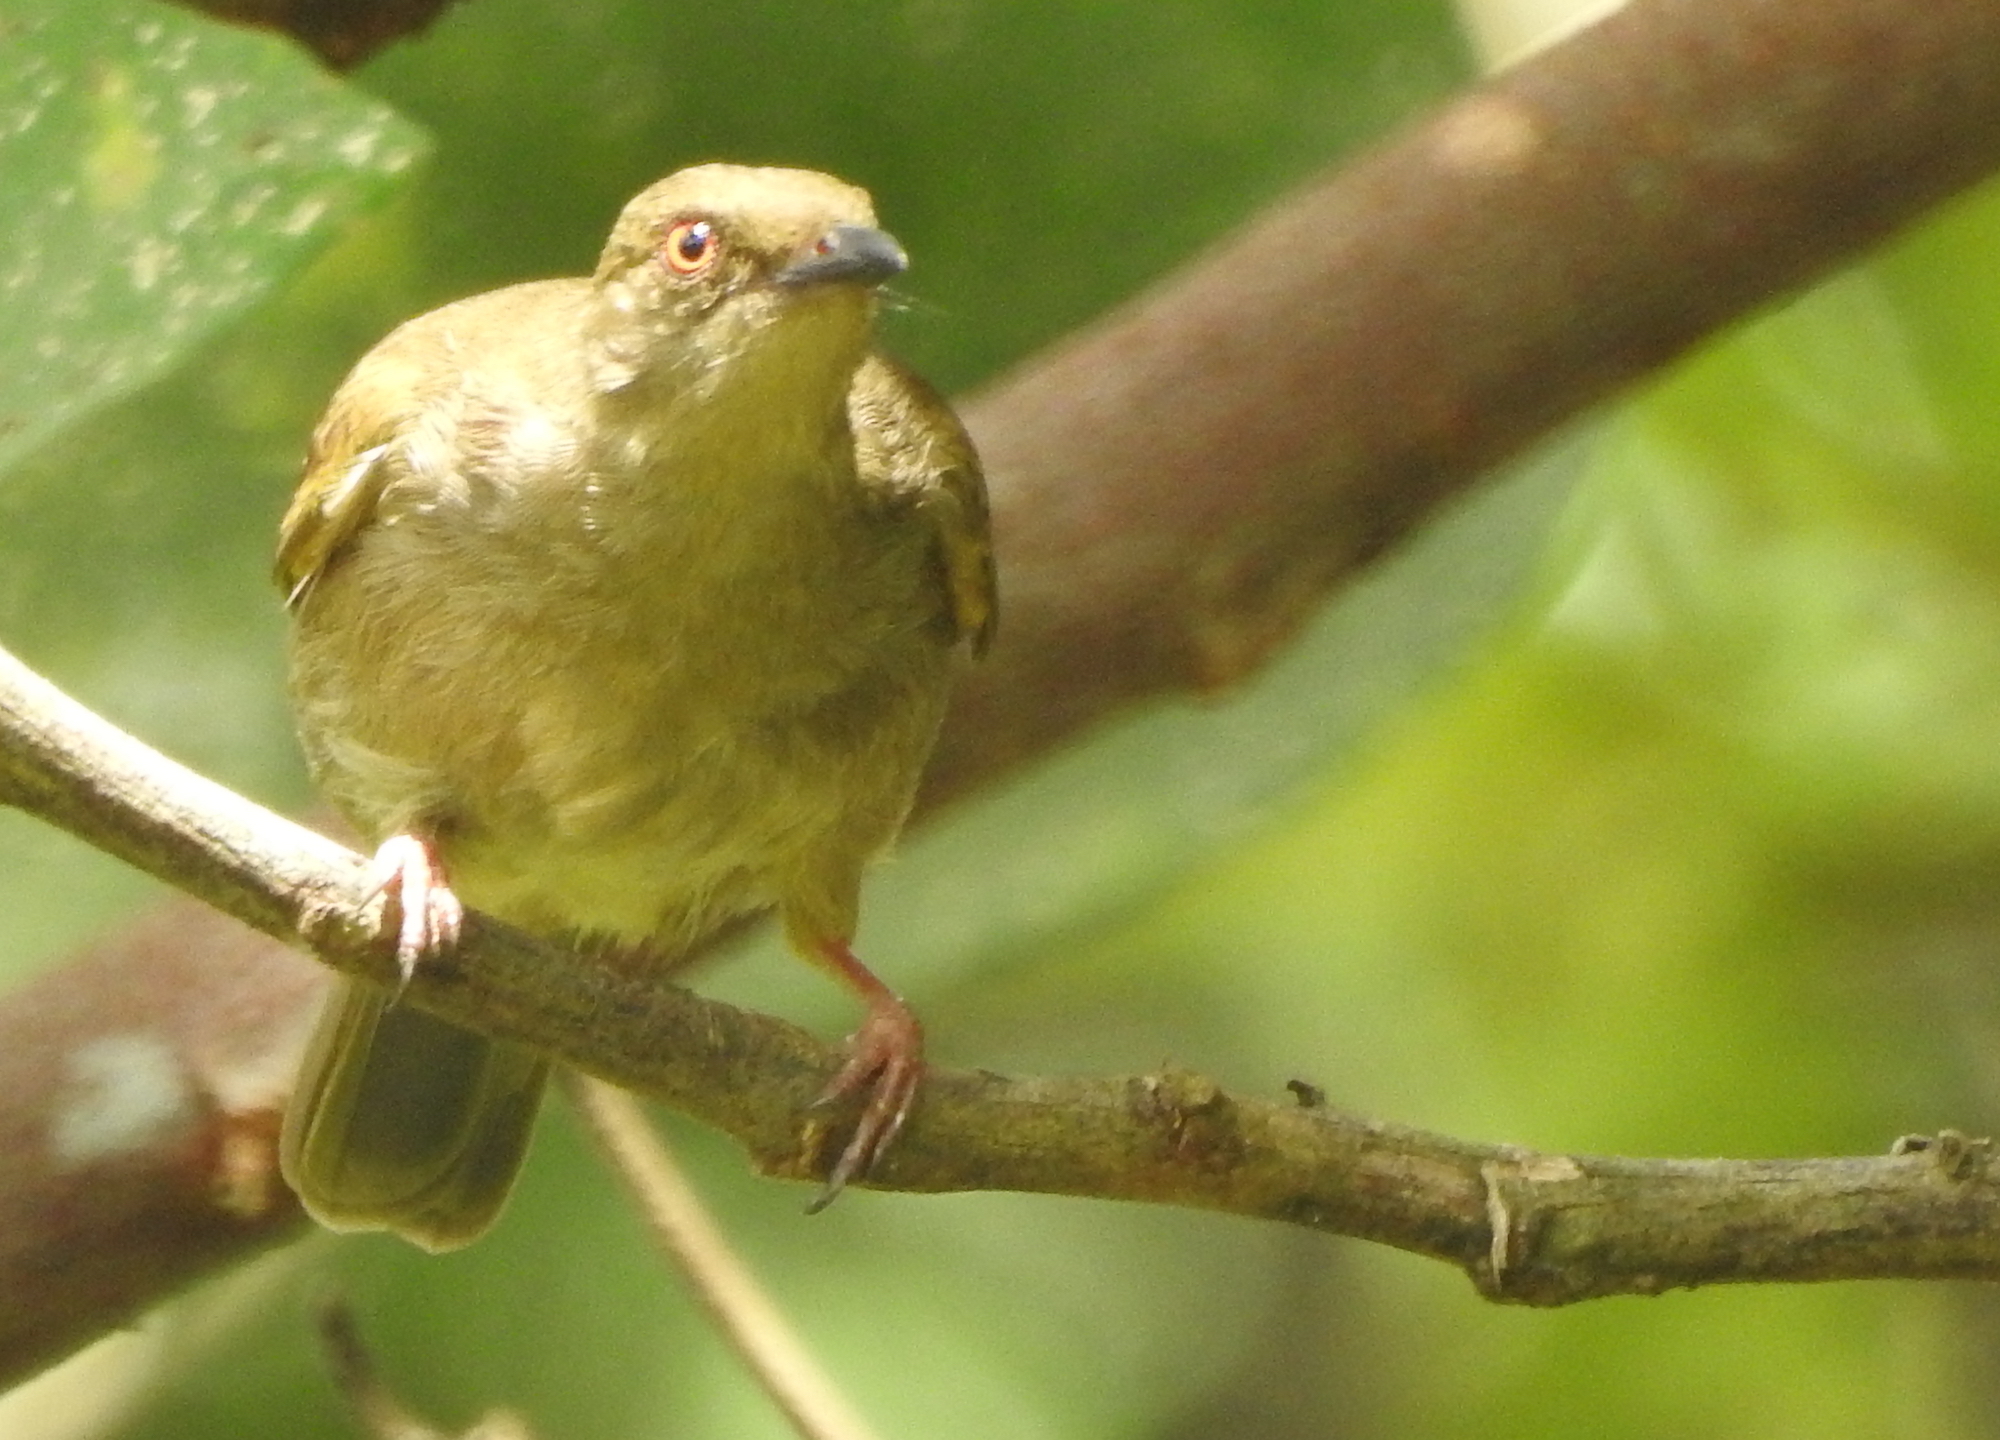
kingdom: Animalia
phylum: Chordata
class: Aves
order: Passeriformes
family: Pycnonotidae
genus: Pycnonotus
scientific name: Pycnonotus brunneus
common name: Asian red-eyed bulbul
